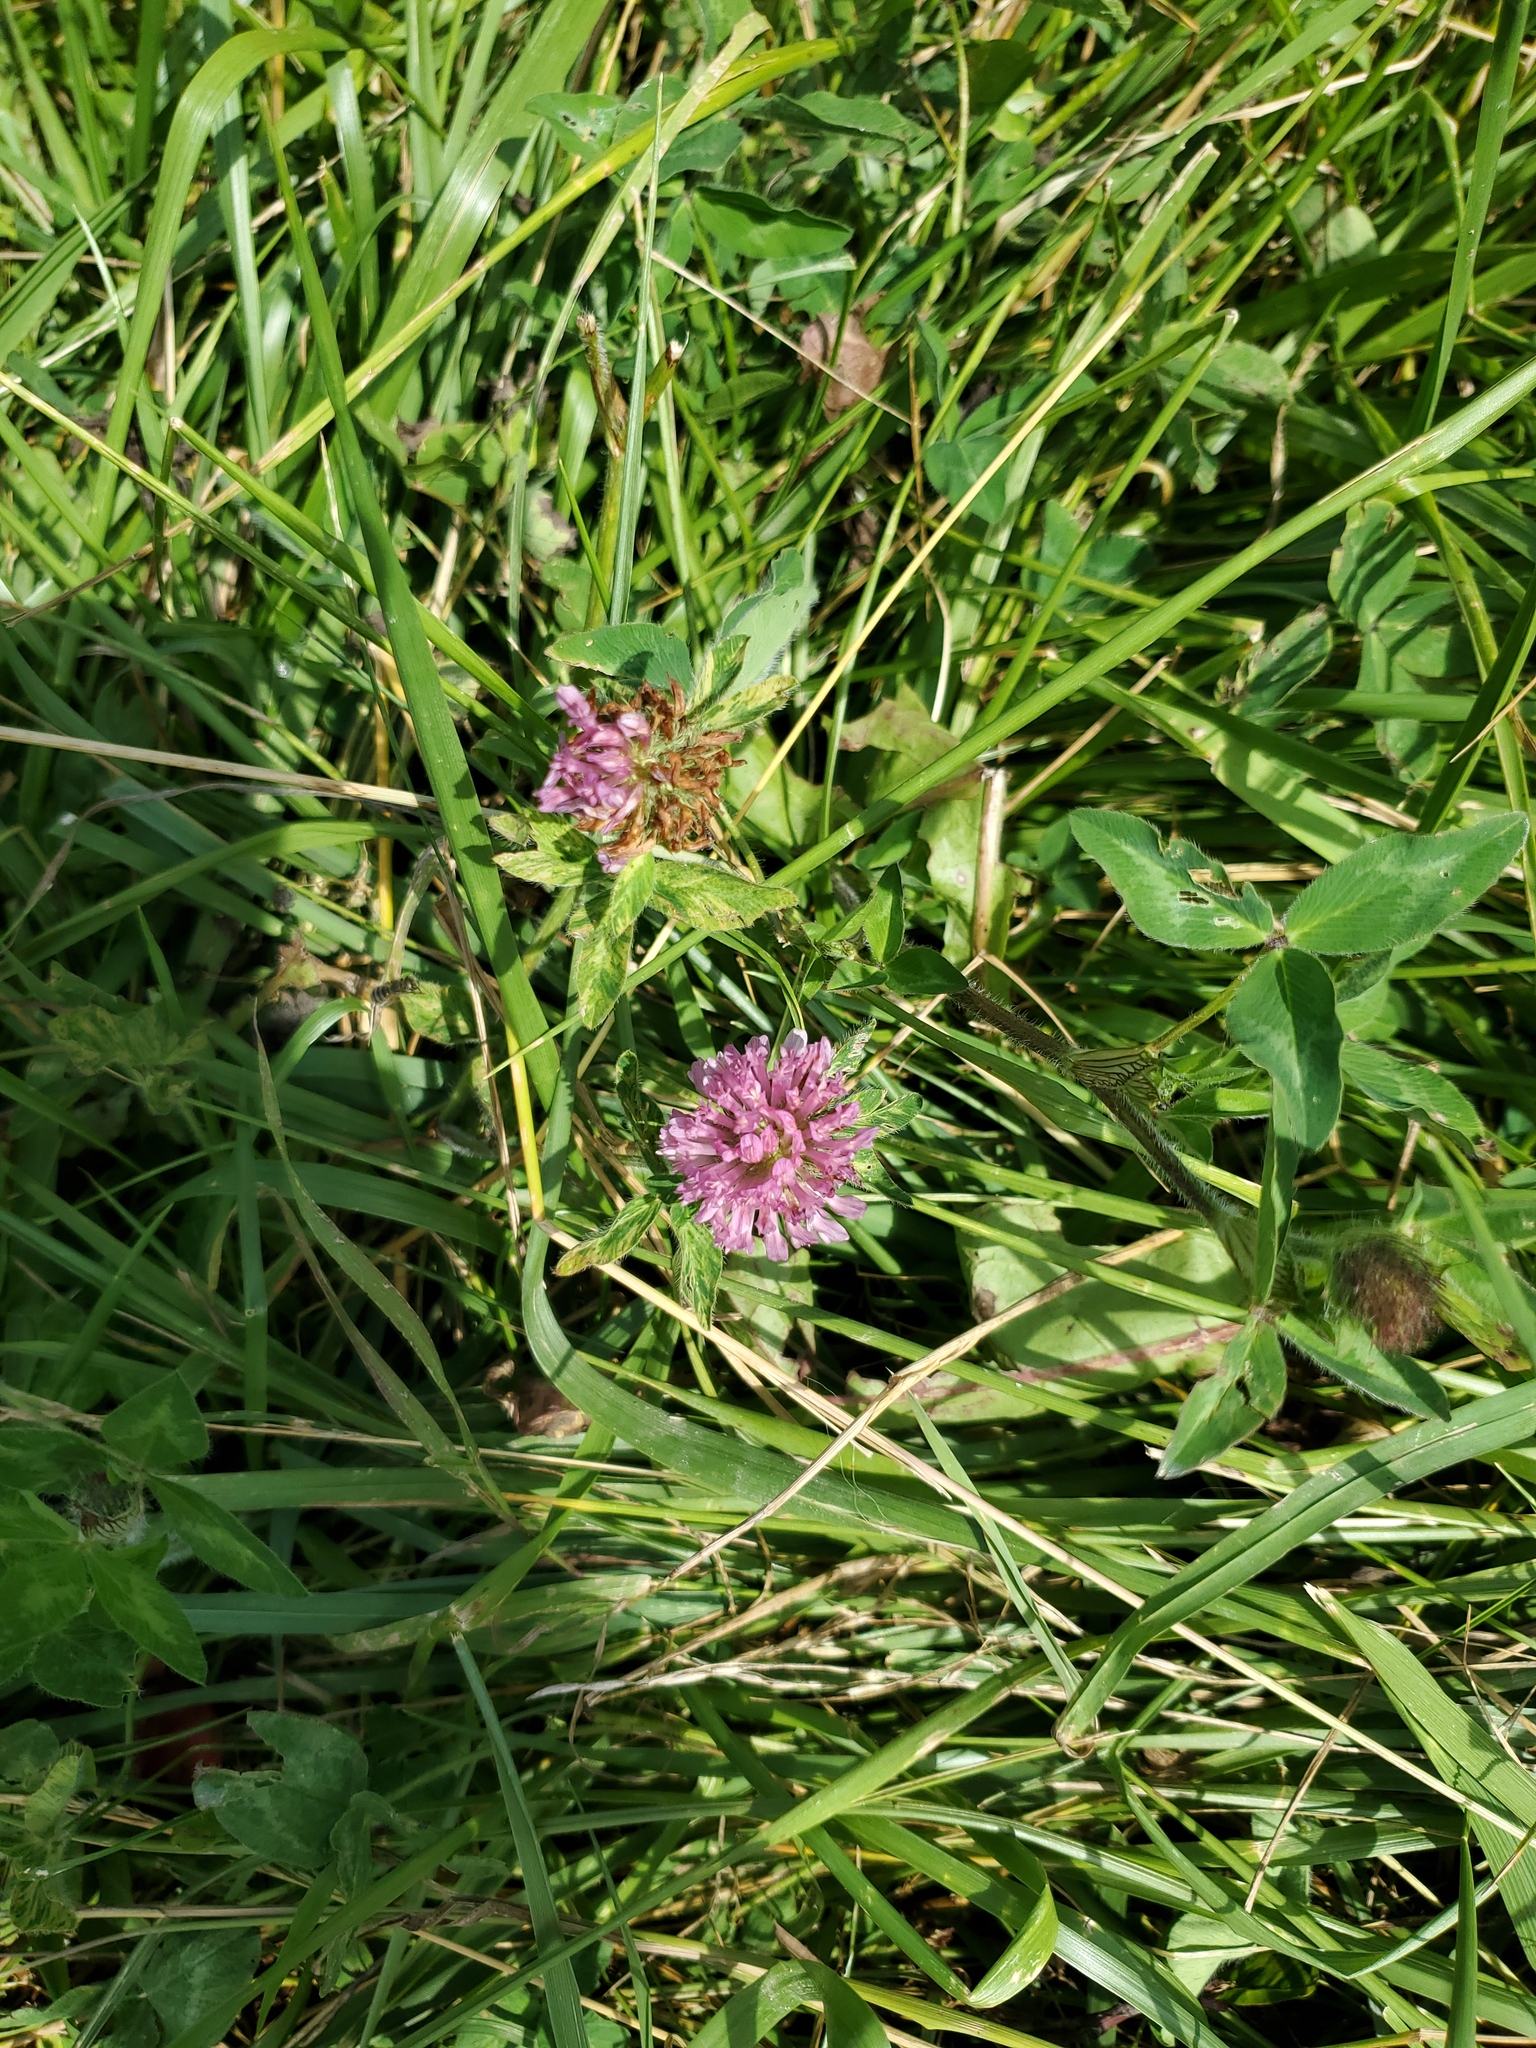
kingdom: Plantae
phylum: Tracheophyta
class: Magnoliopsida
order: Fabales
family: Fabaceae
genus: Trifolium
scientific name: Trifolium pratense
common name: Red clover
